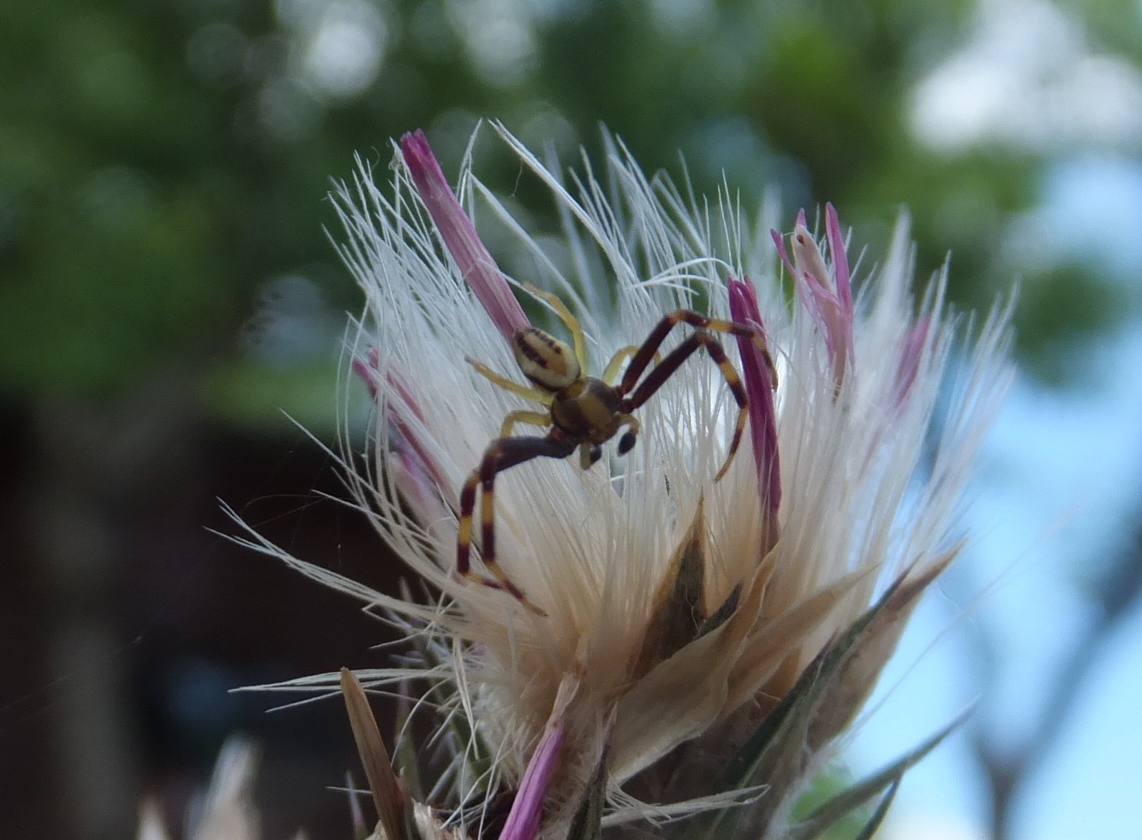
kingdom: Animalia
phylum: Arthropoda
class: Arachnida
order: Araneae
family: Thomisidae
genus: Misumena
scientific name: Misumena vatia
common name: Goldenrod crab spider
